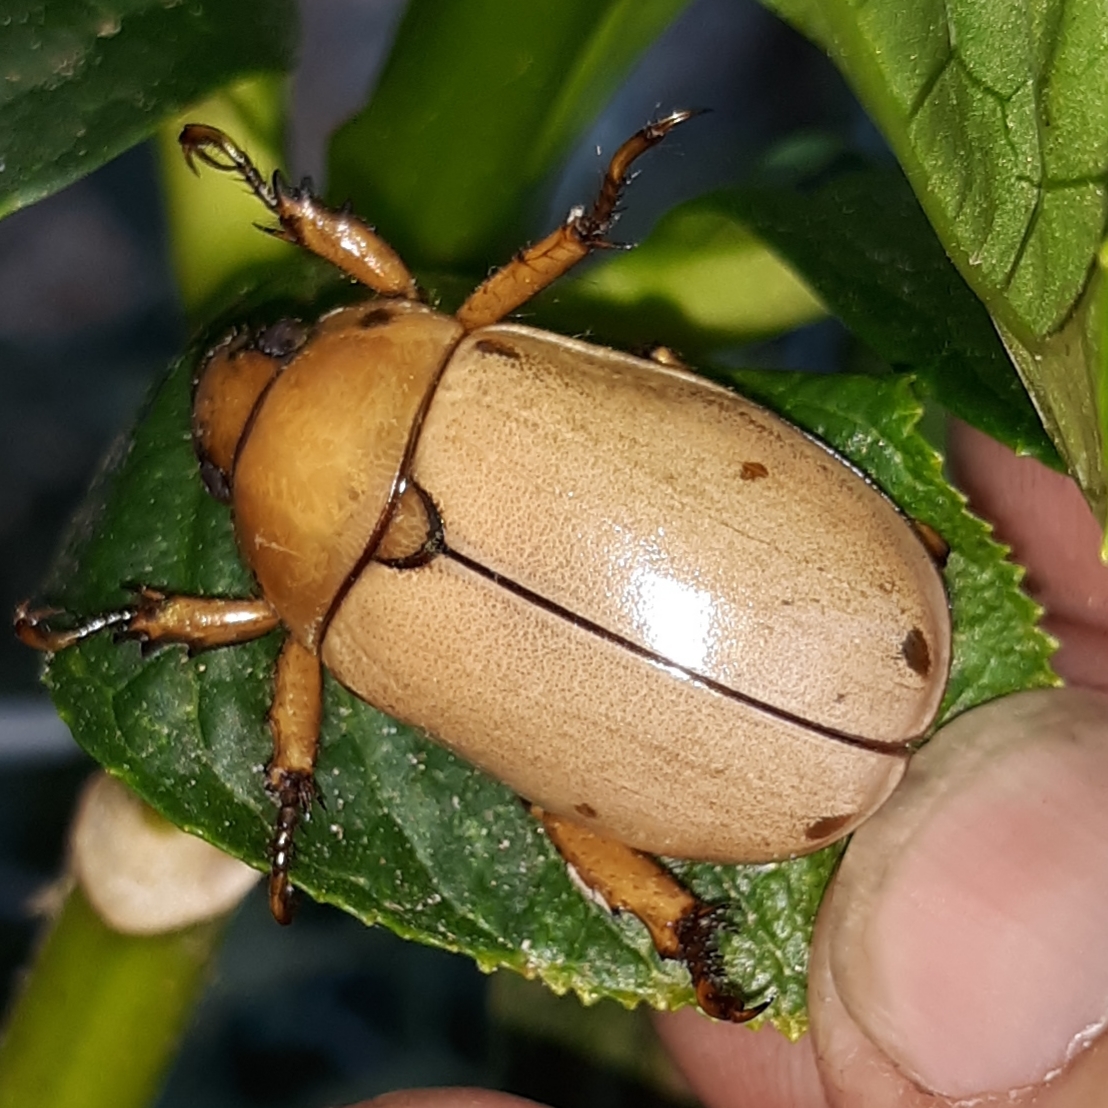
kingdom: Animalia
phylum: Arthropoda
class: Insecta
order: Coleoptera
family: Scarabaeidae
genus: Pelidnota
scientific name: Pelidnota punctata
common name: Grapevine beetle
